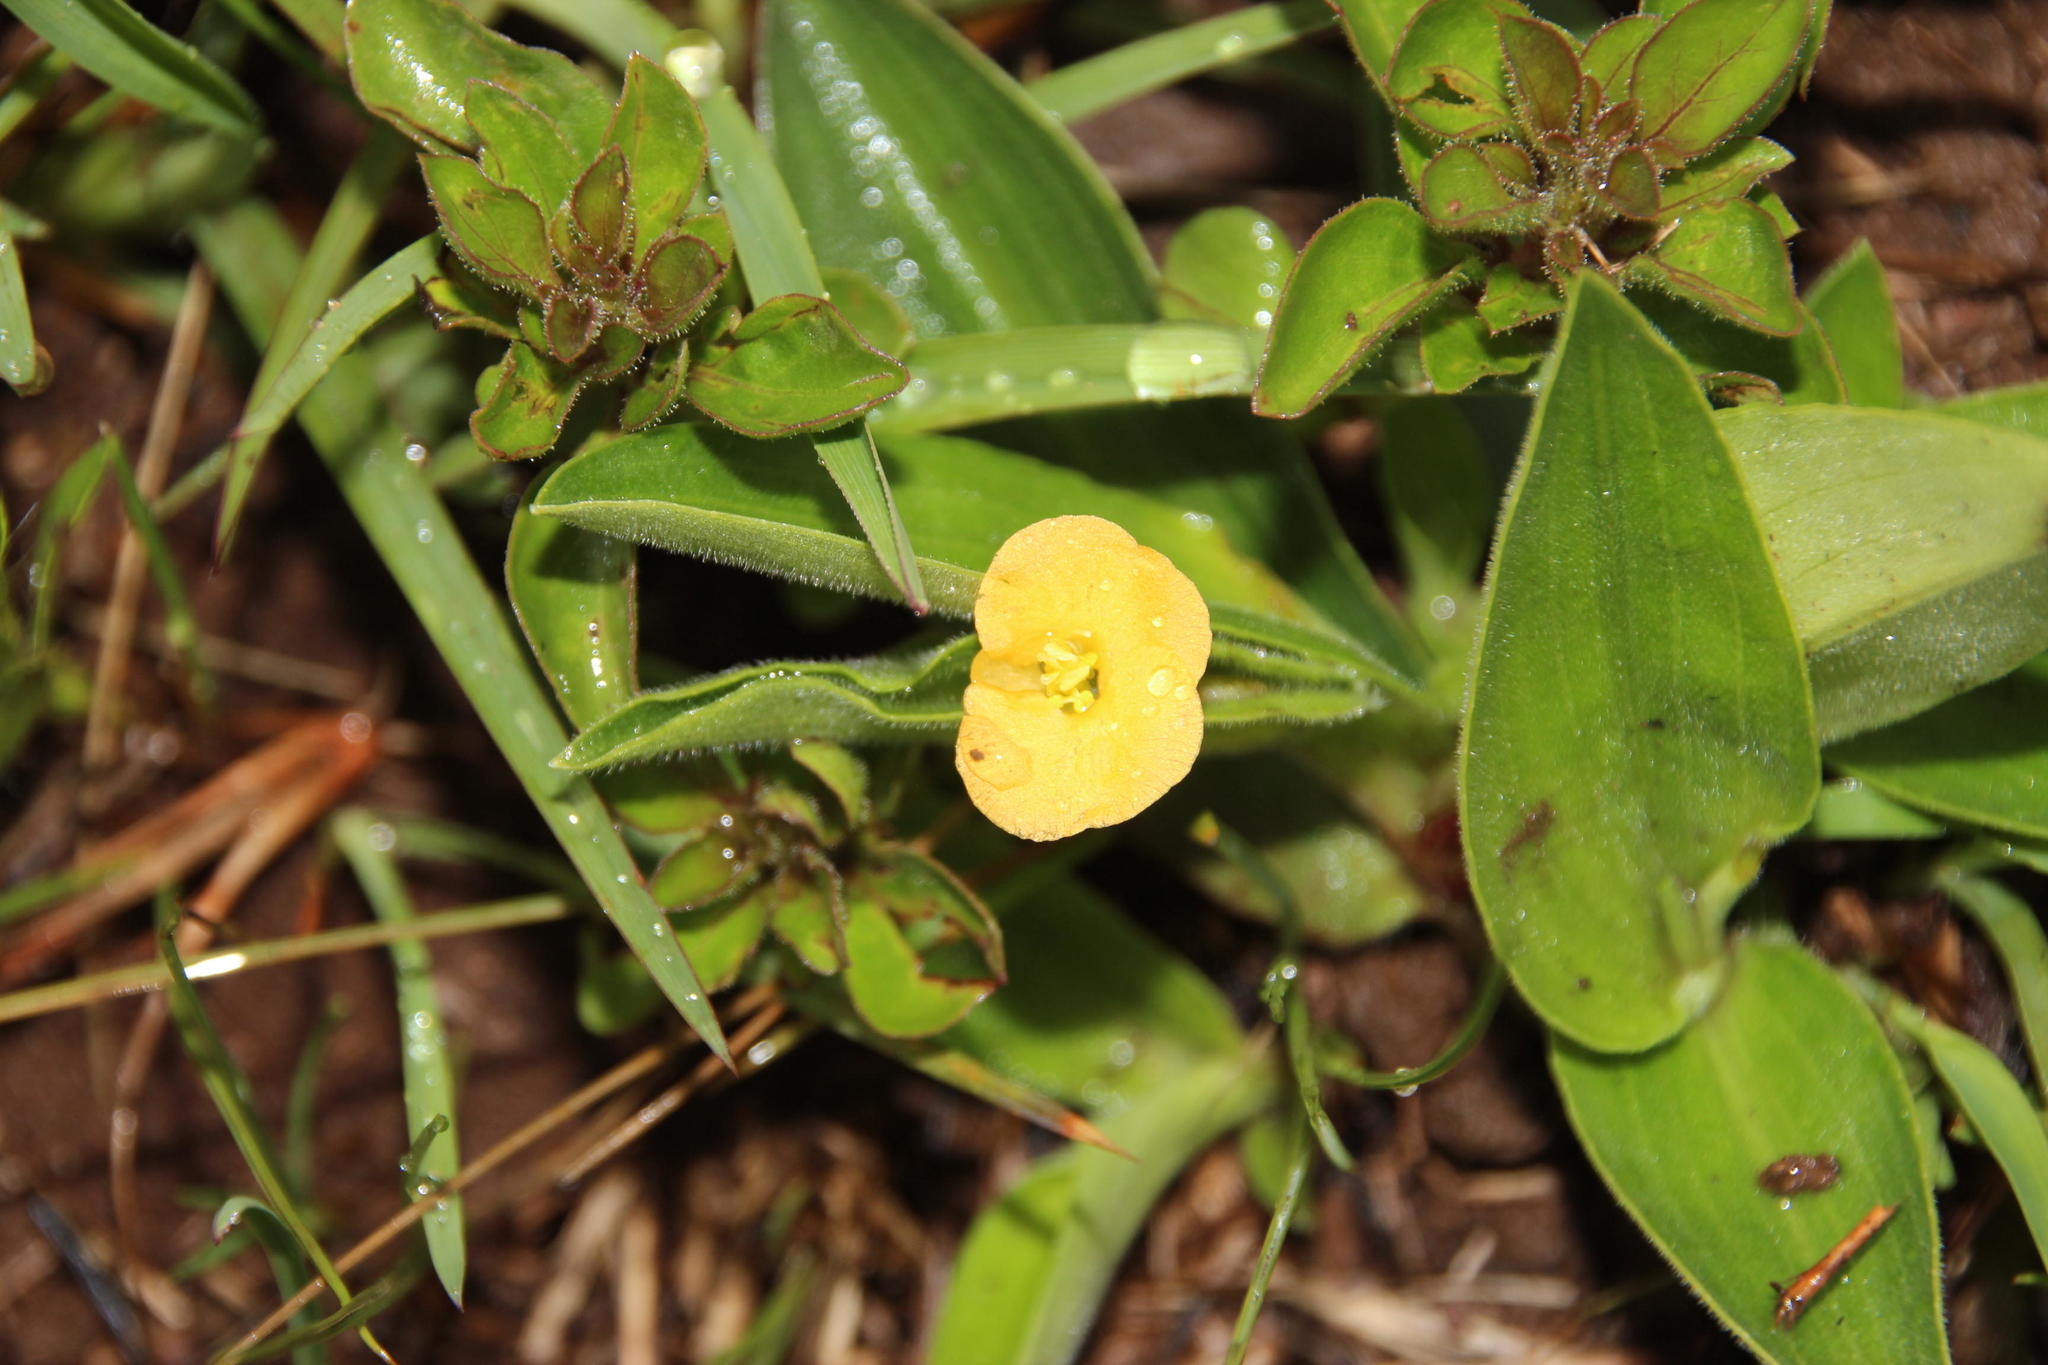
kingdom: Plantae
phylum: Tracheophyta
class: Liliopsida
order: Commelinales
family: Commelinaceae
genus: Commelina
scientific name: Commelina africana
